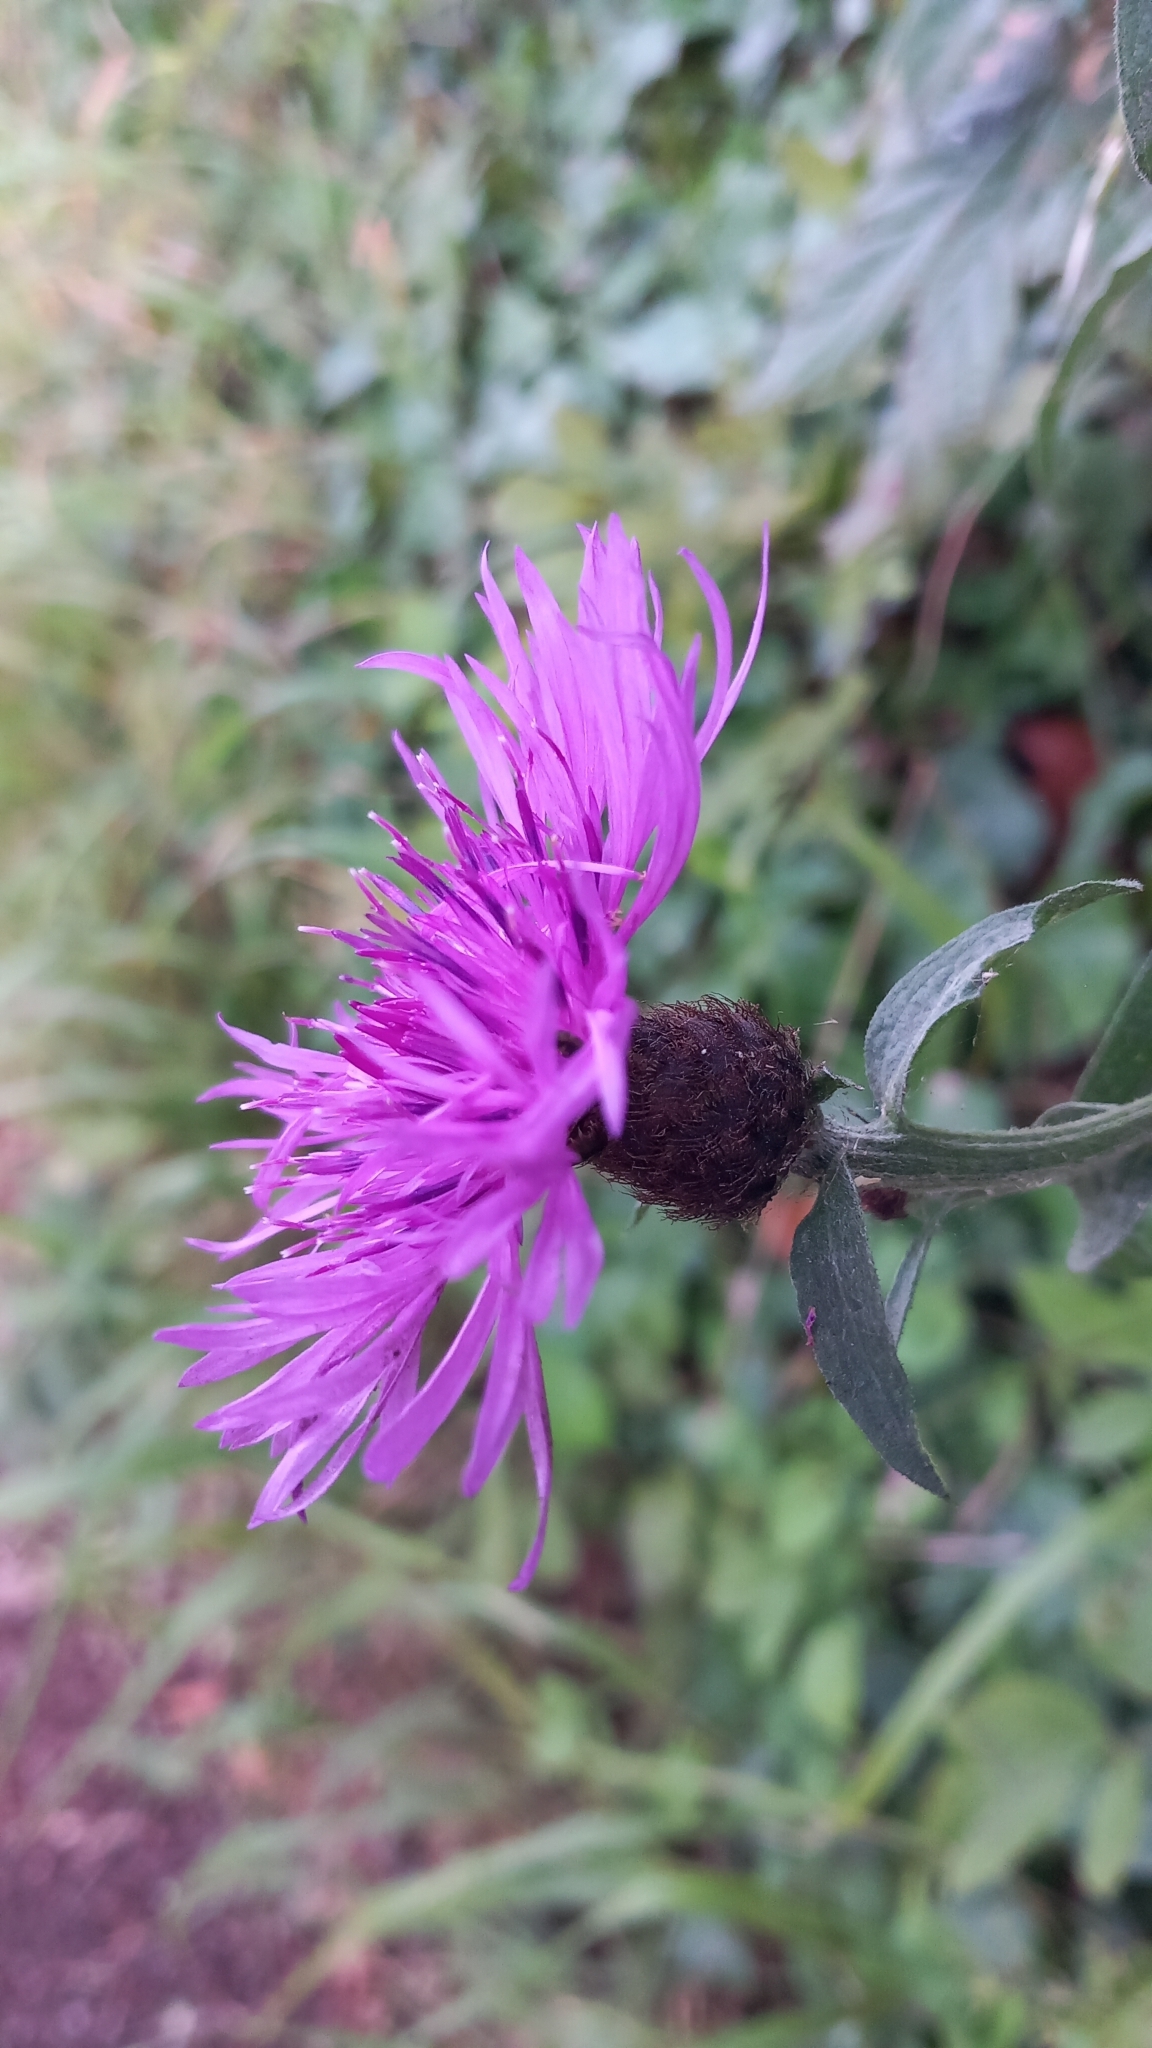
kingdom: Plantae
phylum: Tracheophyta
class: Magnoliopsida
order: Asterales
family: Asteraceae
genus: Centaurea
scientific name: Centaurea nigra
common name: Lesser knapweed
